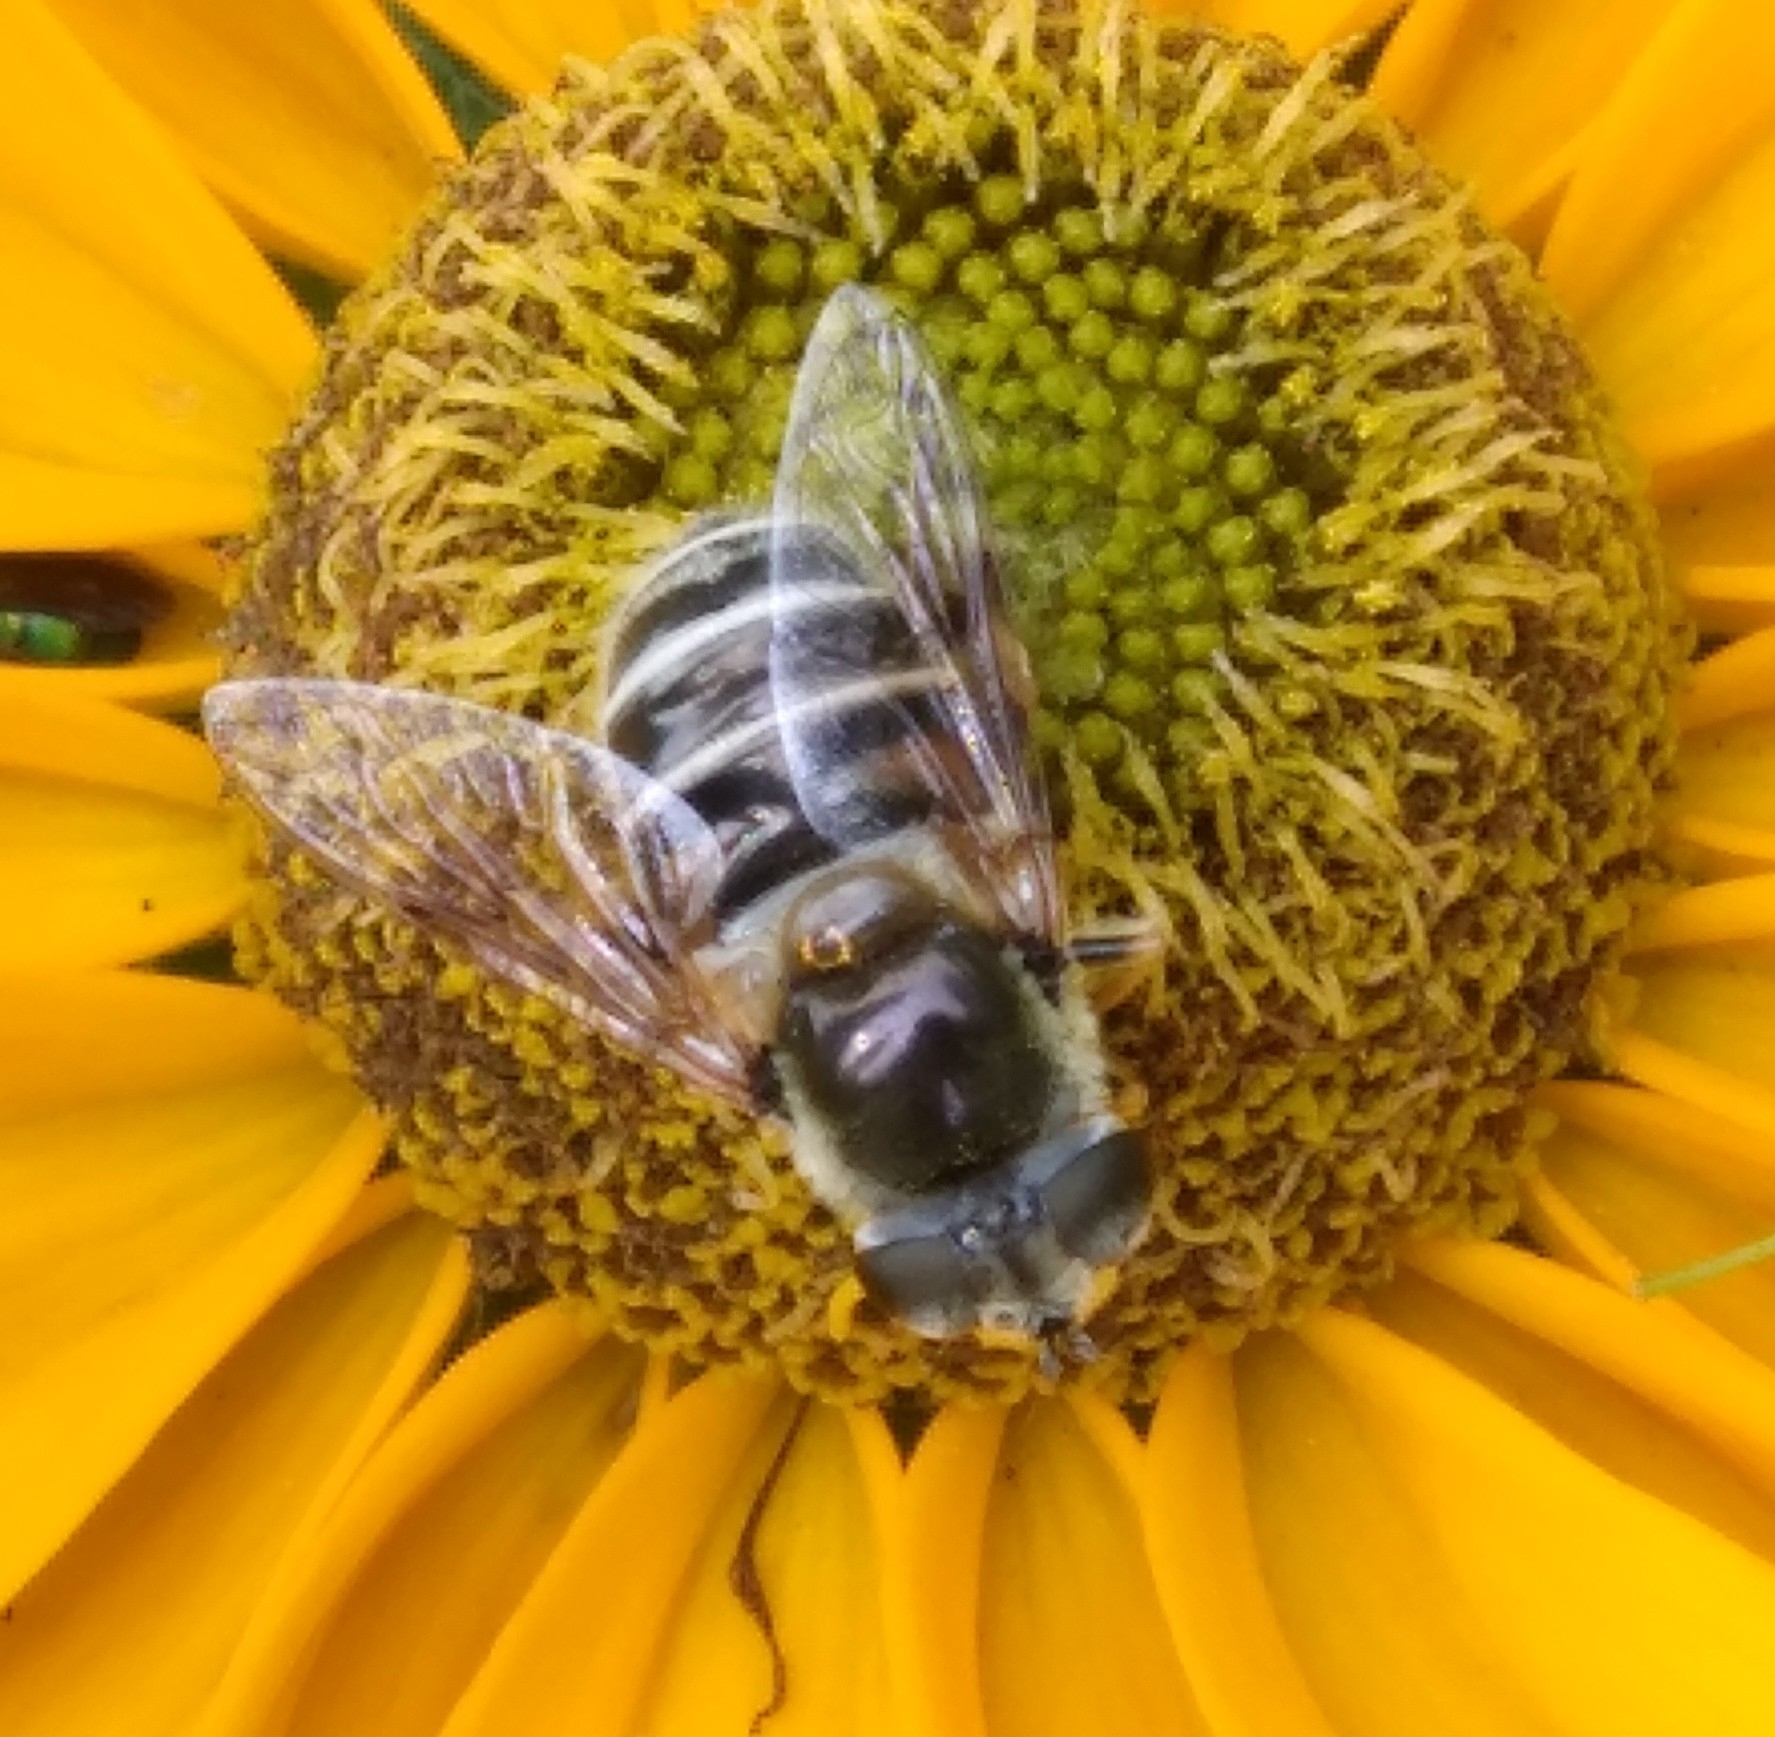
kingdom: Animalia
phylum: Arthropoda
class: Insecta
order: Diptera
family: Syrphidae
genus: Eristalis
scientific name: Eristalis stipator
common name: Yellow-shouldered drone fly
